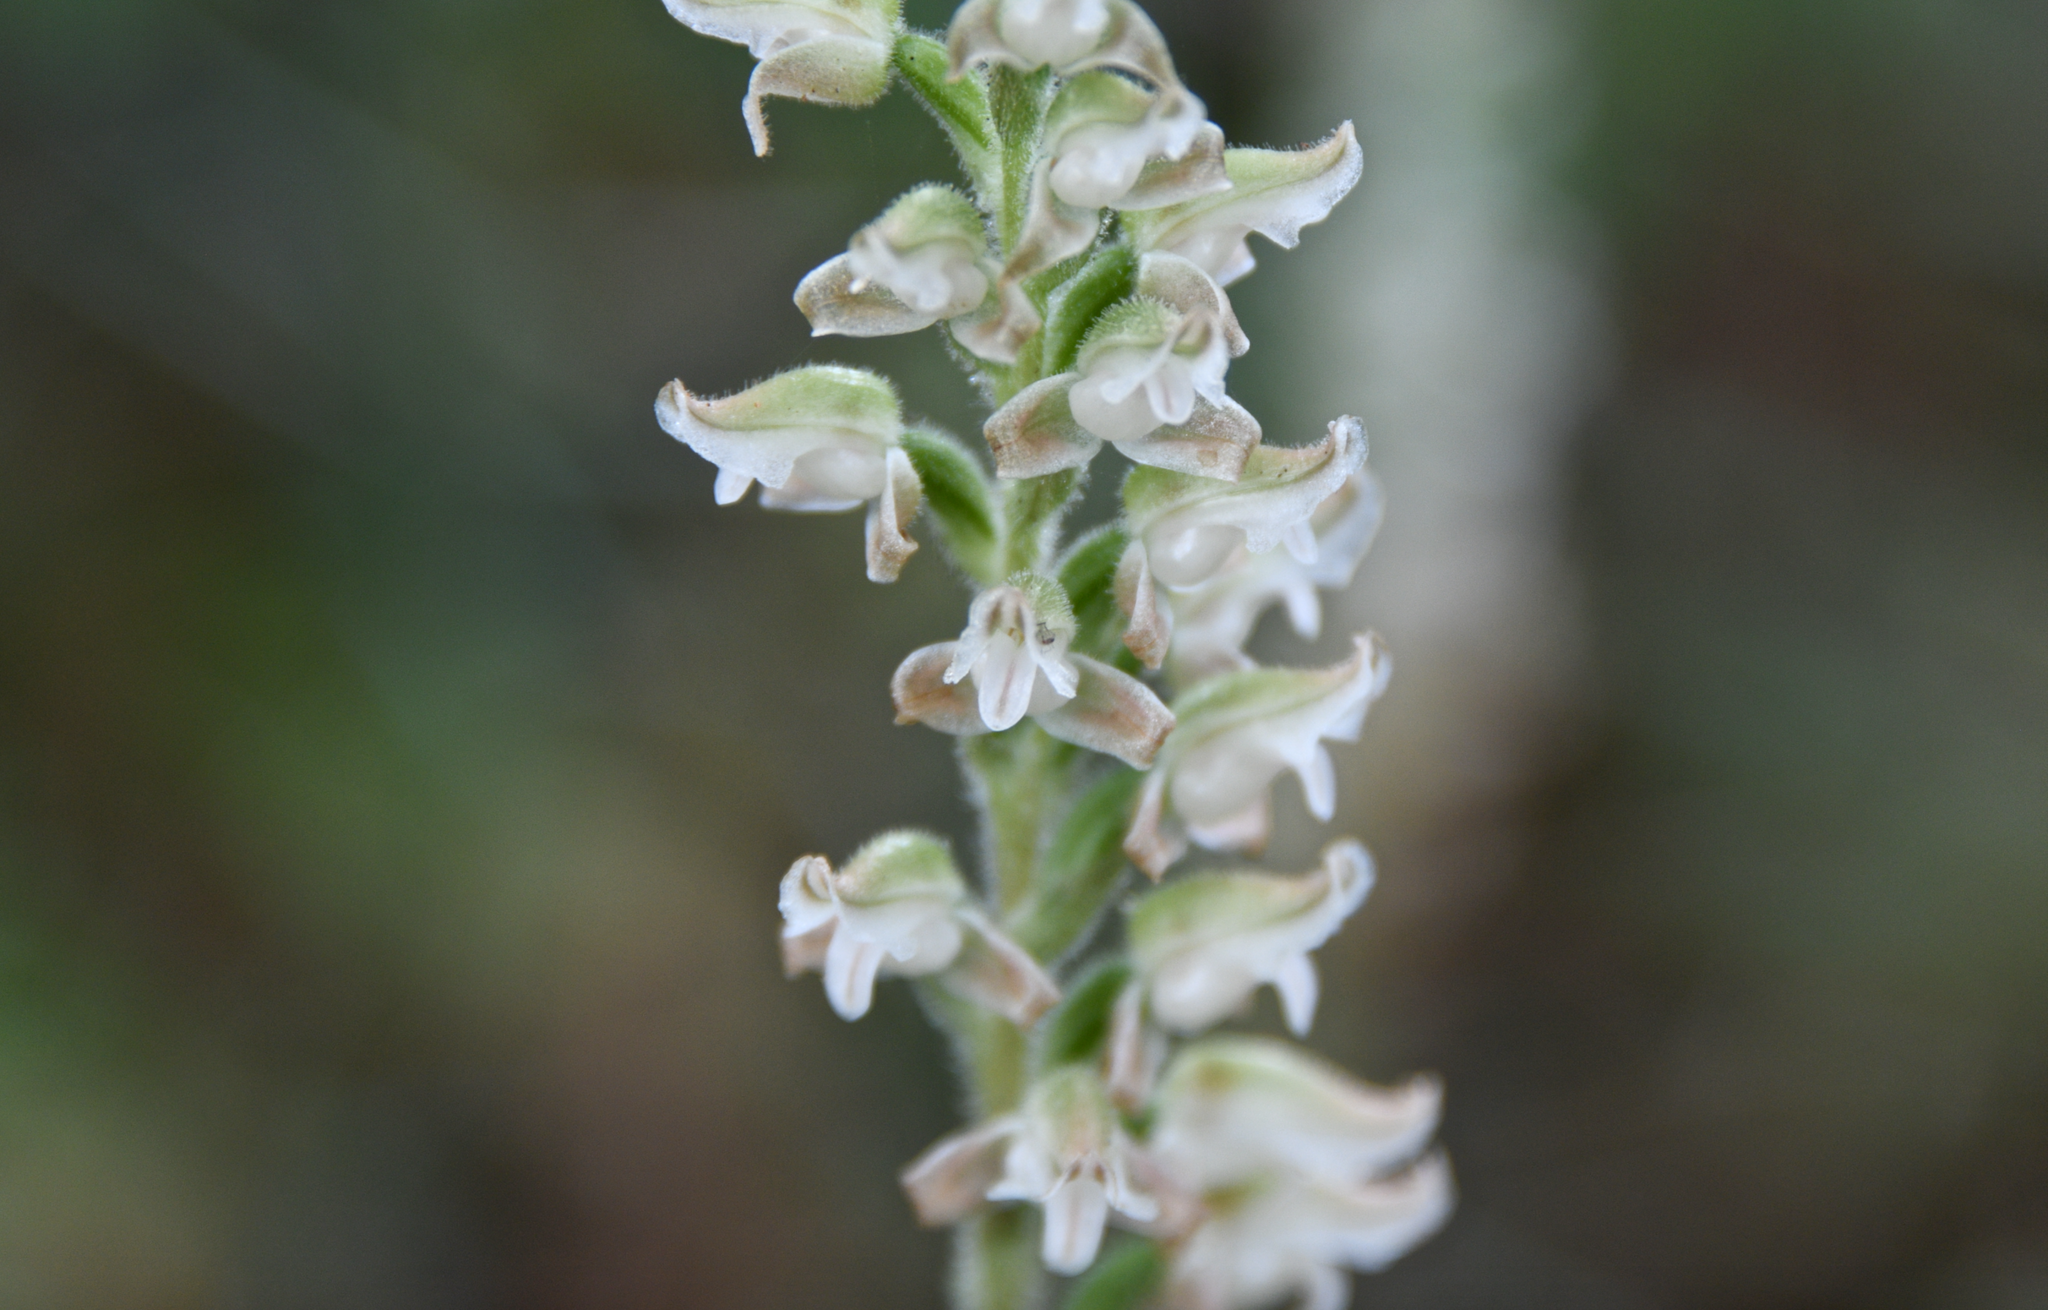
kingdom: Plantae
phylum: Tracheophyta
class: Liliopsida
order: Asparagales
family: Orchidaceae
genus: Goodyera
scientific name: Goodyera oblongifolia
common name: Giant rattlesnake-plantain
